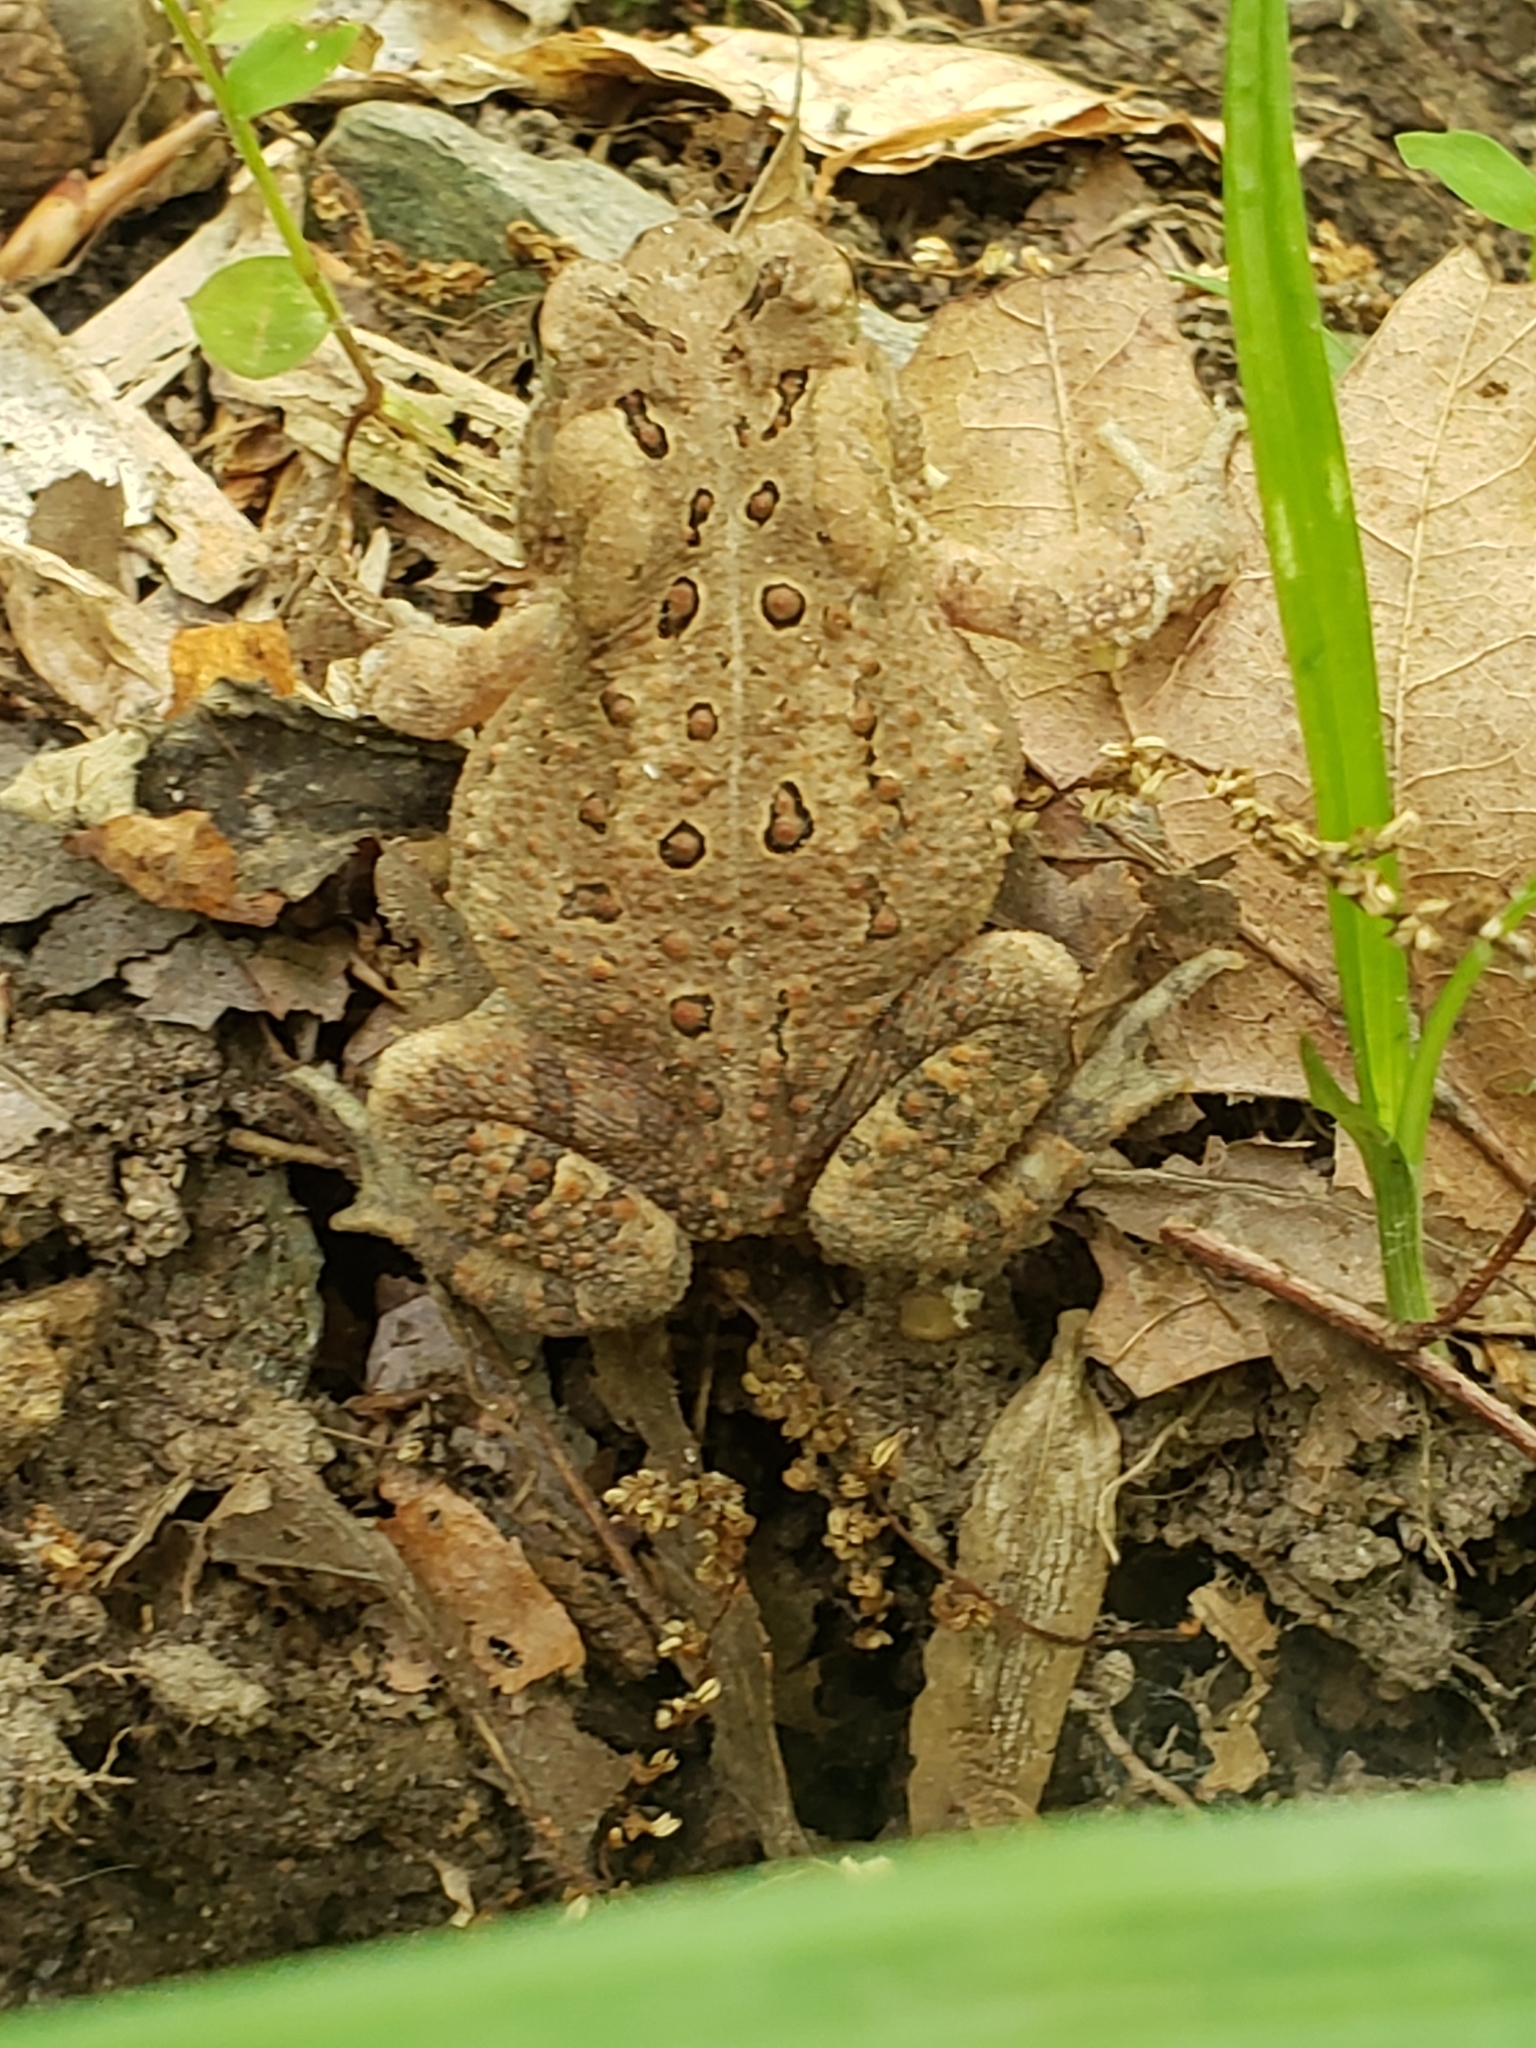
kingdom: Animalia
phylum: Chordata
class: Amphibia
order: Anura
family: Bufonidae
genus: Anaxyrus
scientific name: Anaxyrus americanus
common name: American toad
